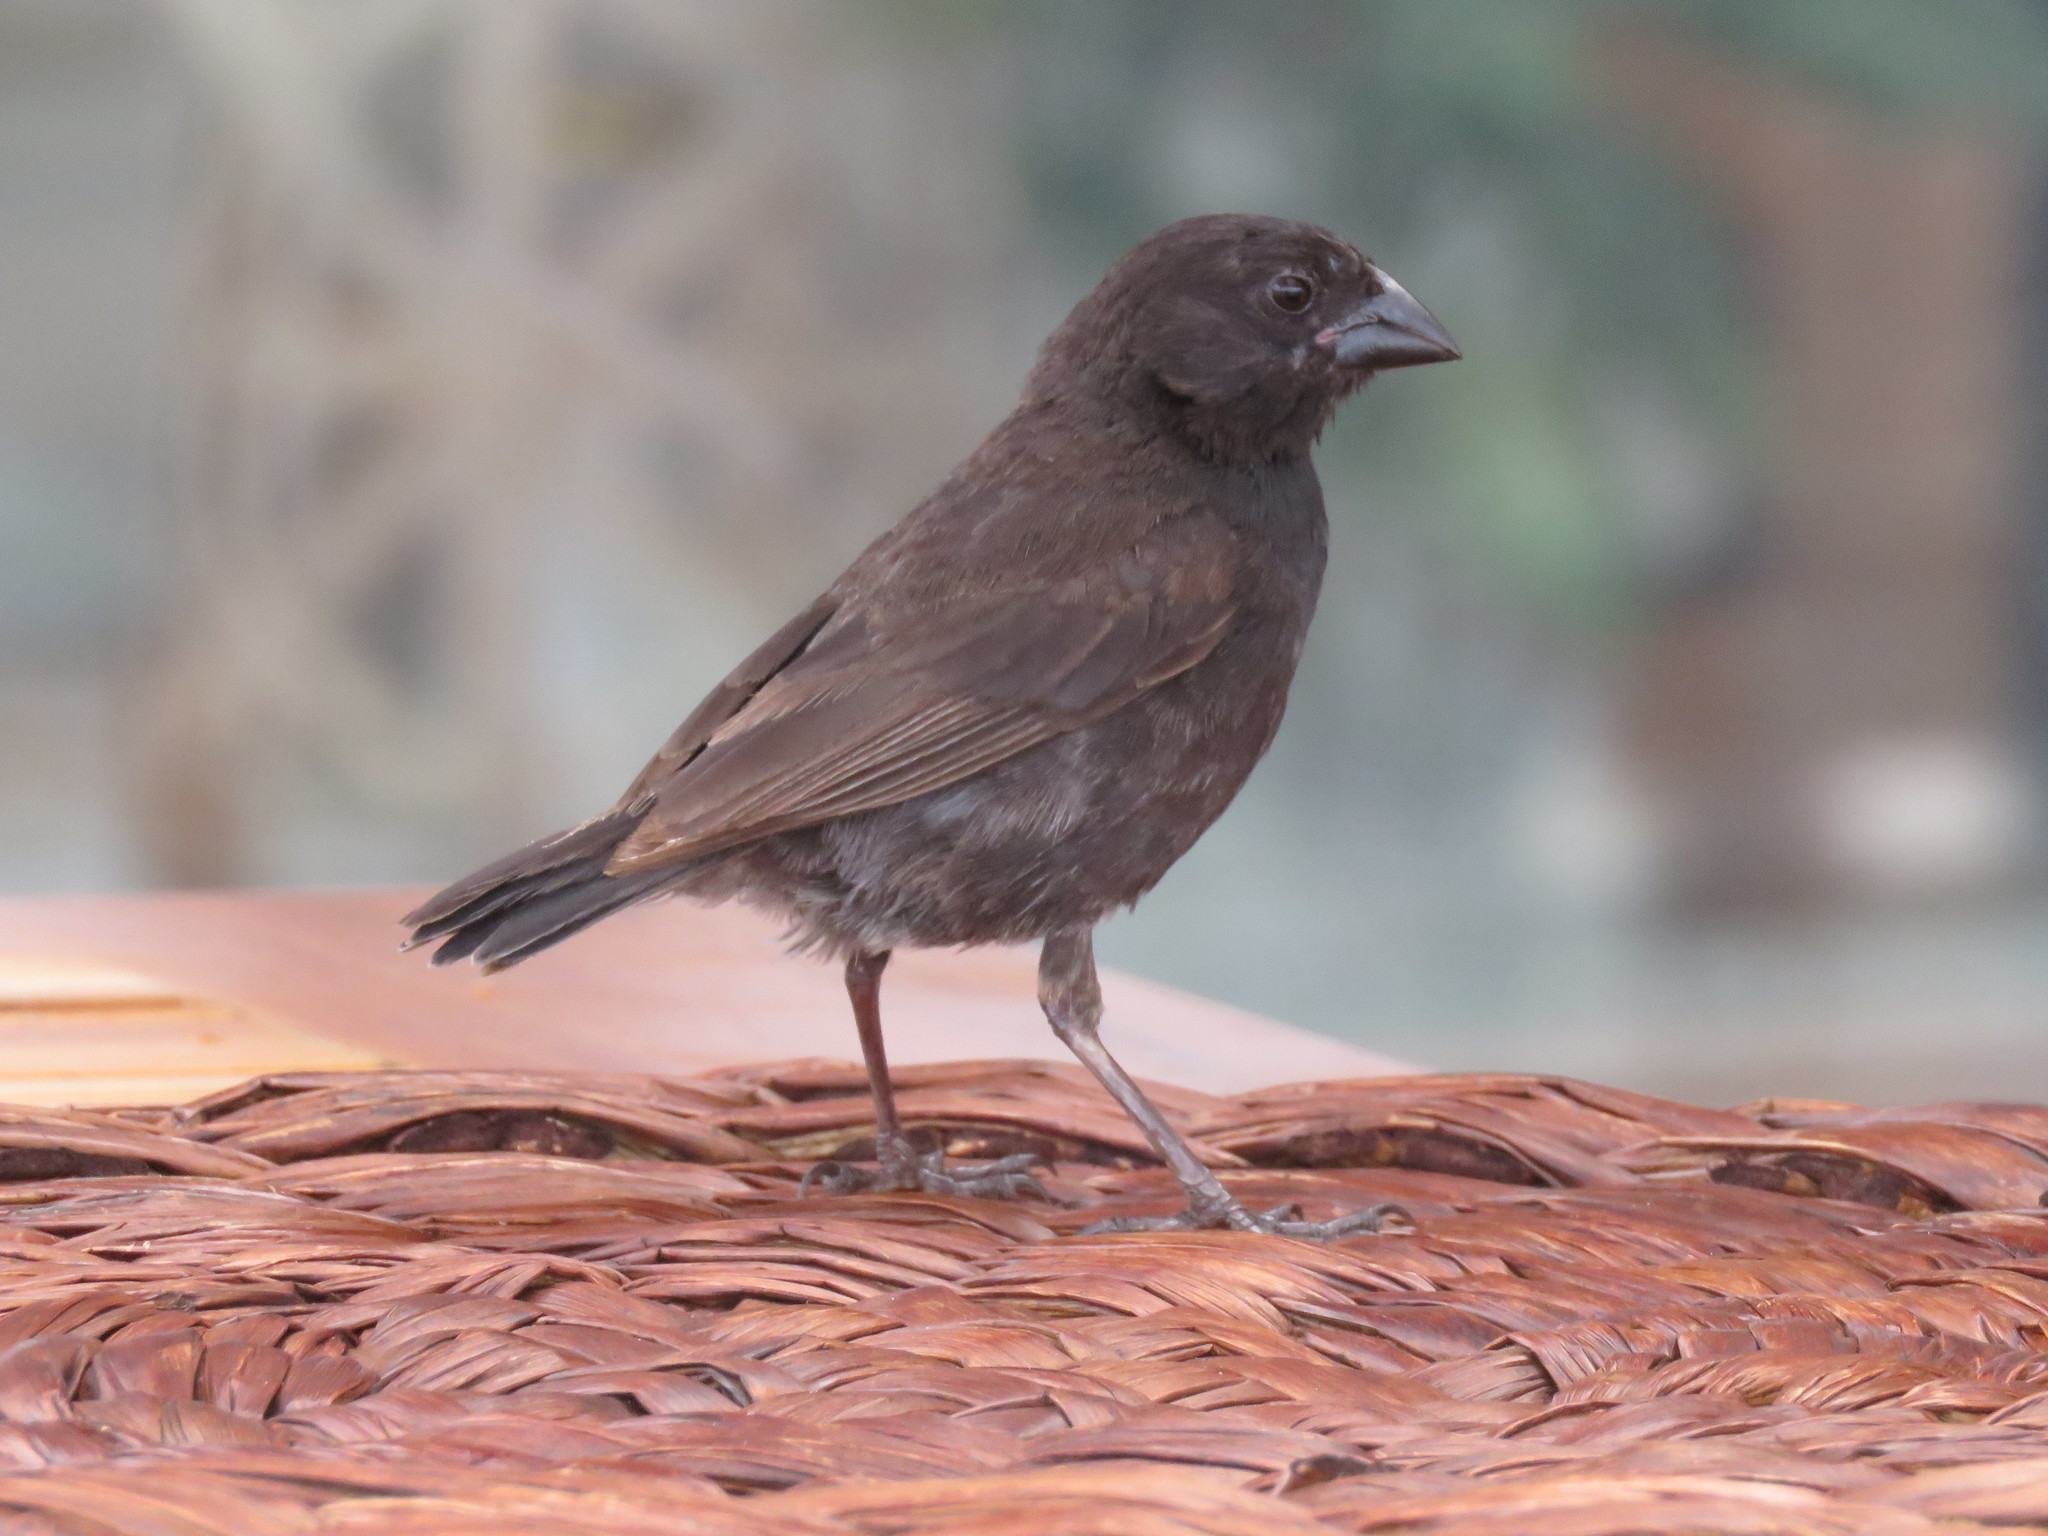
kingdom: Animalia
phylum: Chordata
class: Aves
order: Passeriformes
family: Thraupidae
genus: Geospiza
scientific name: Geospiza fortis
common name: Medium ground finch
